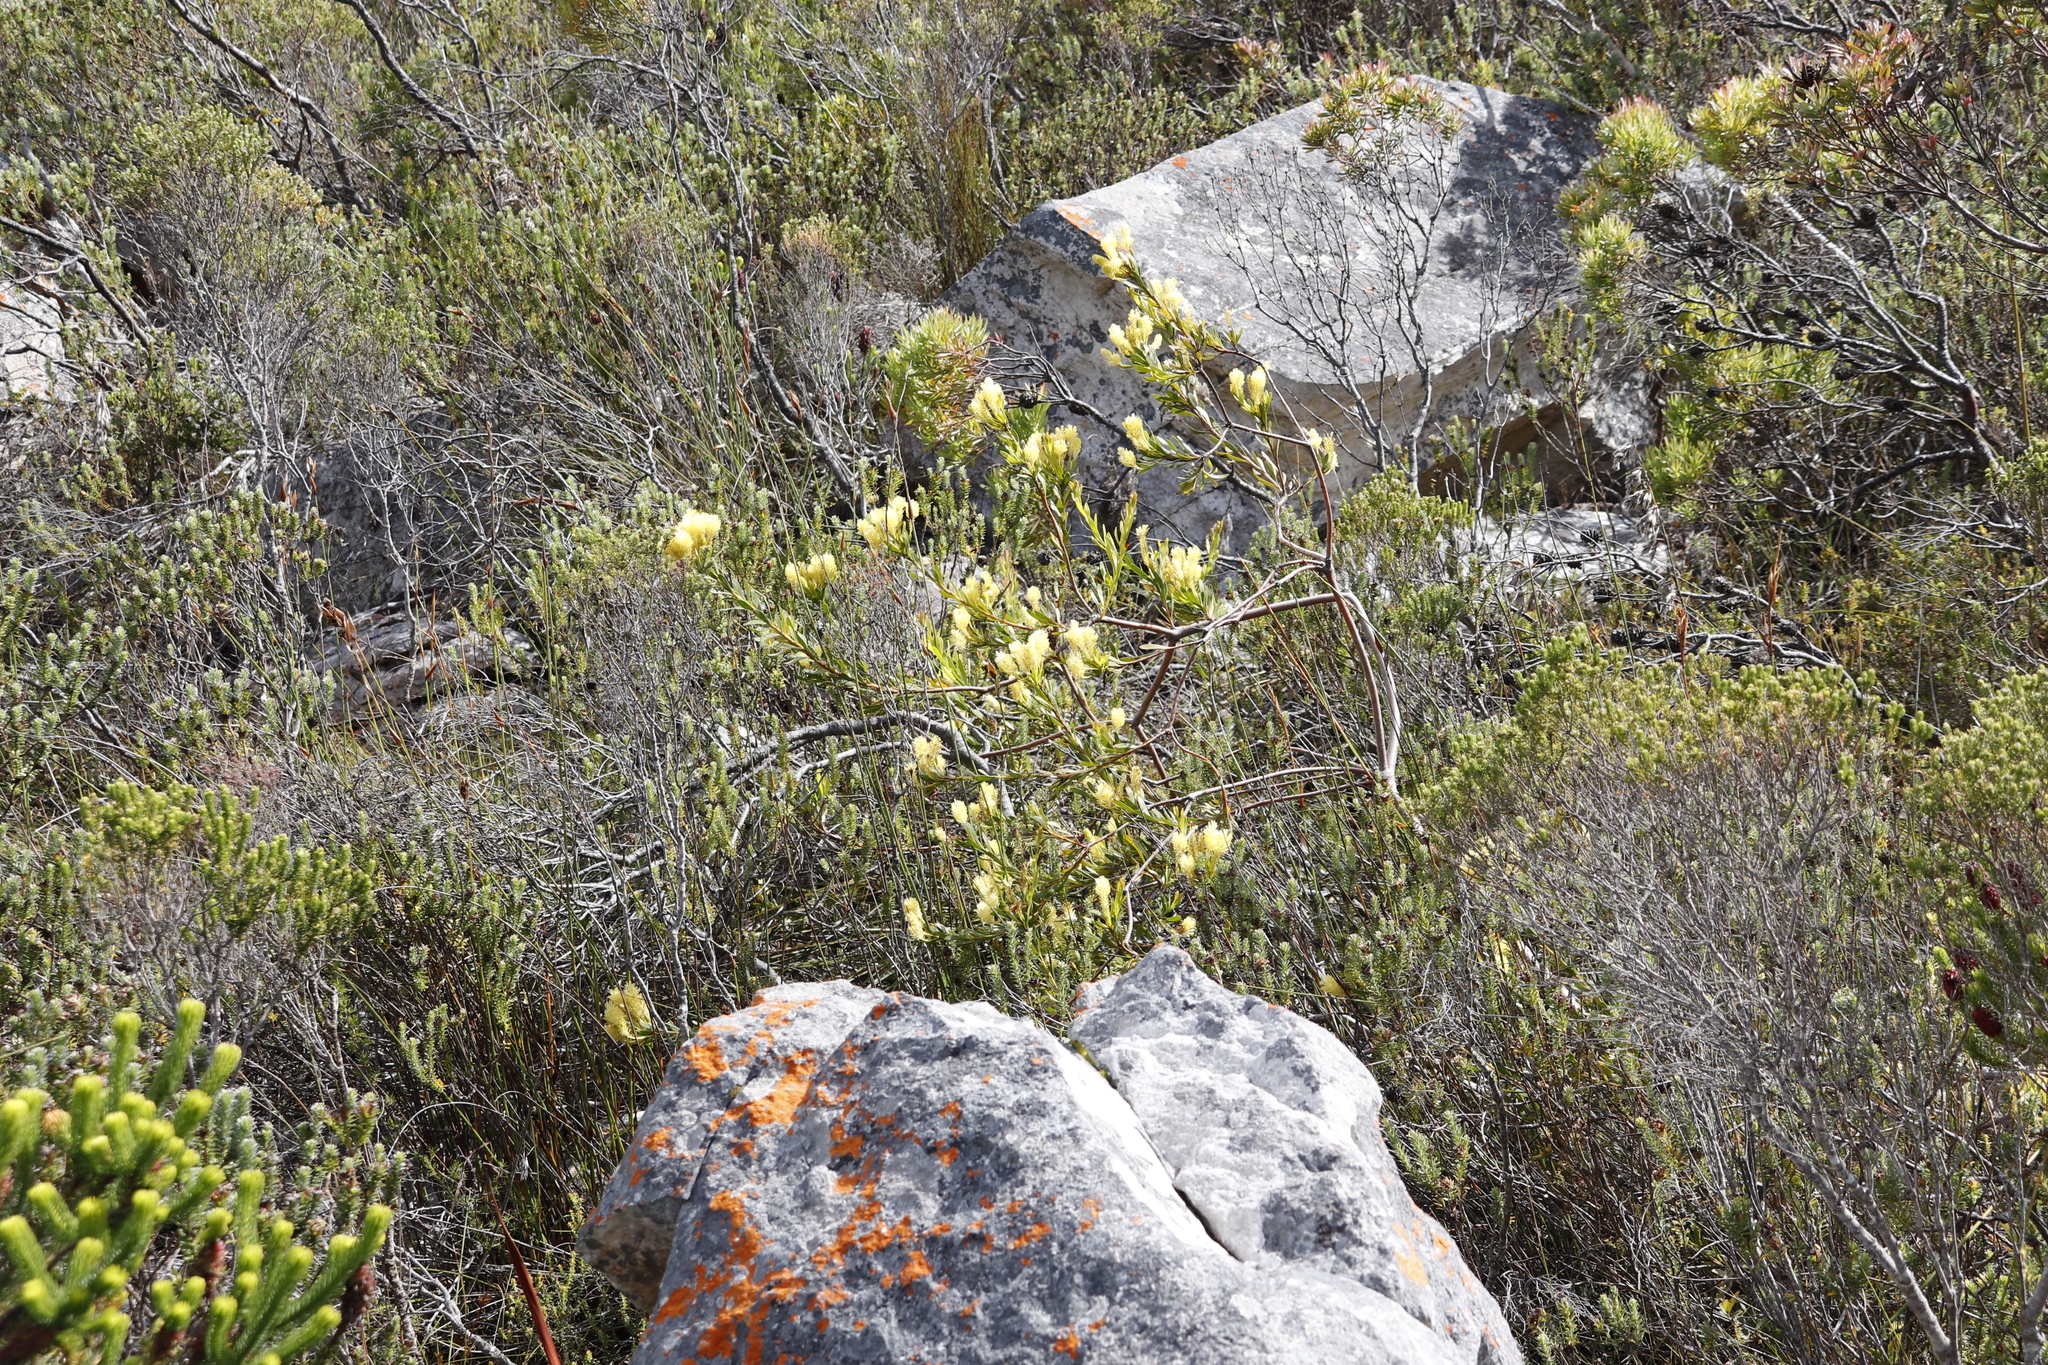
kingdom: Plantae
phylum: Tracheophyta
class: Magnoliopsida
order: Proteales
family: Proteaceae
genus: Aulax
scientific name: Aulax umbellata
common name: Broad-leaf featherbush
